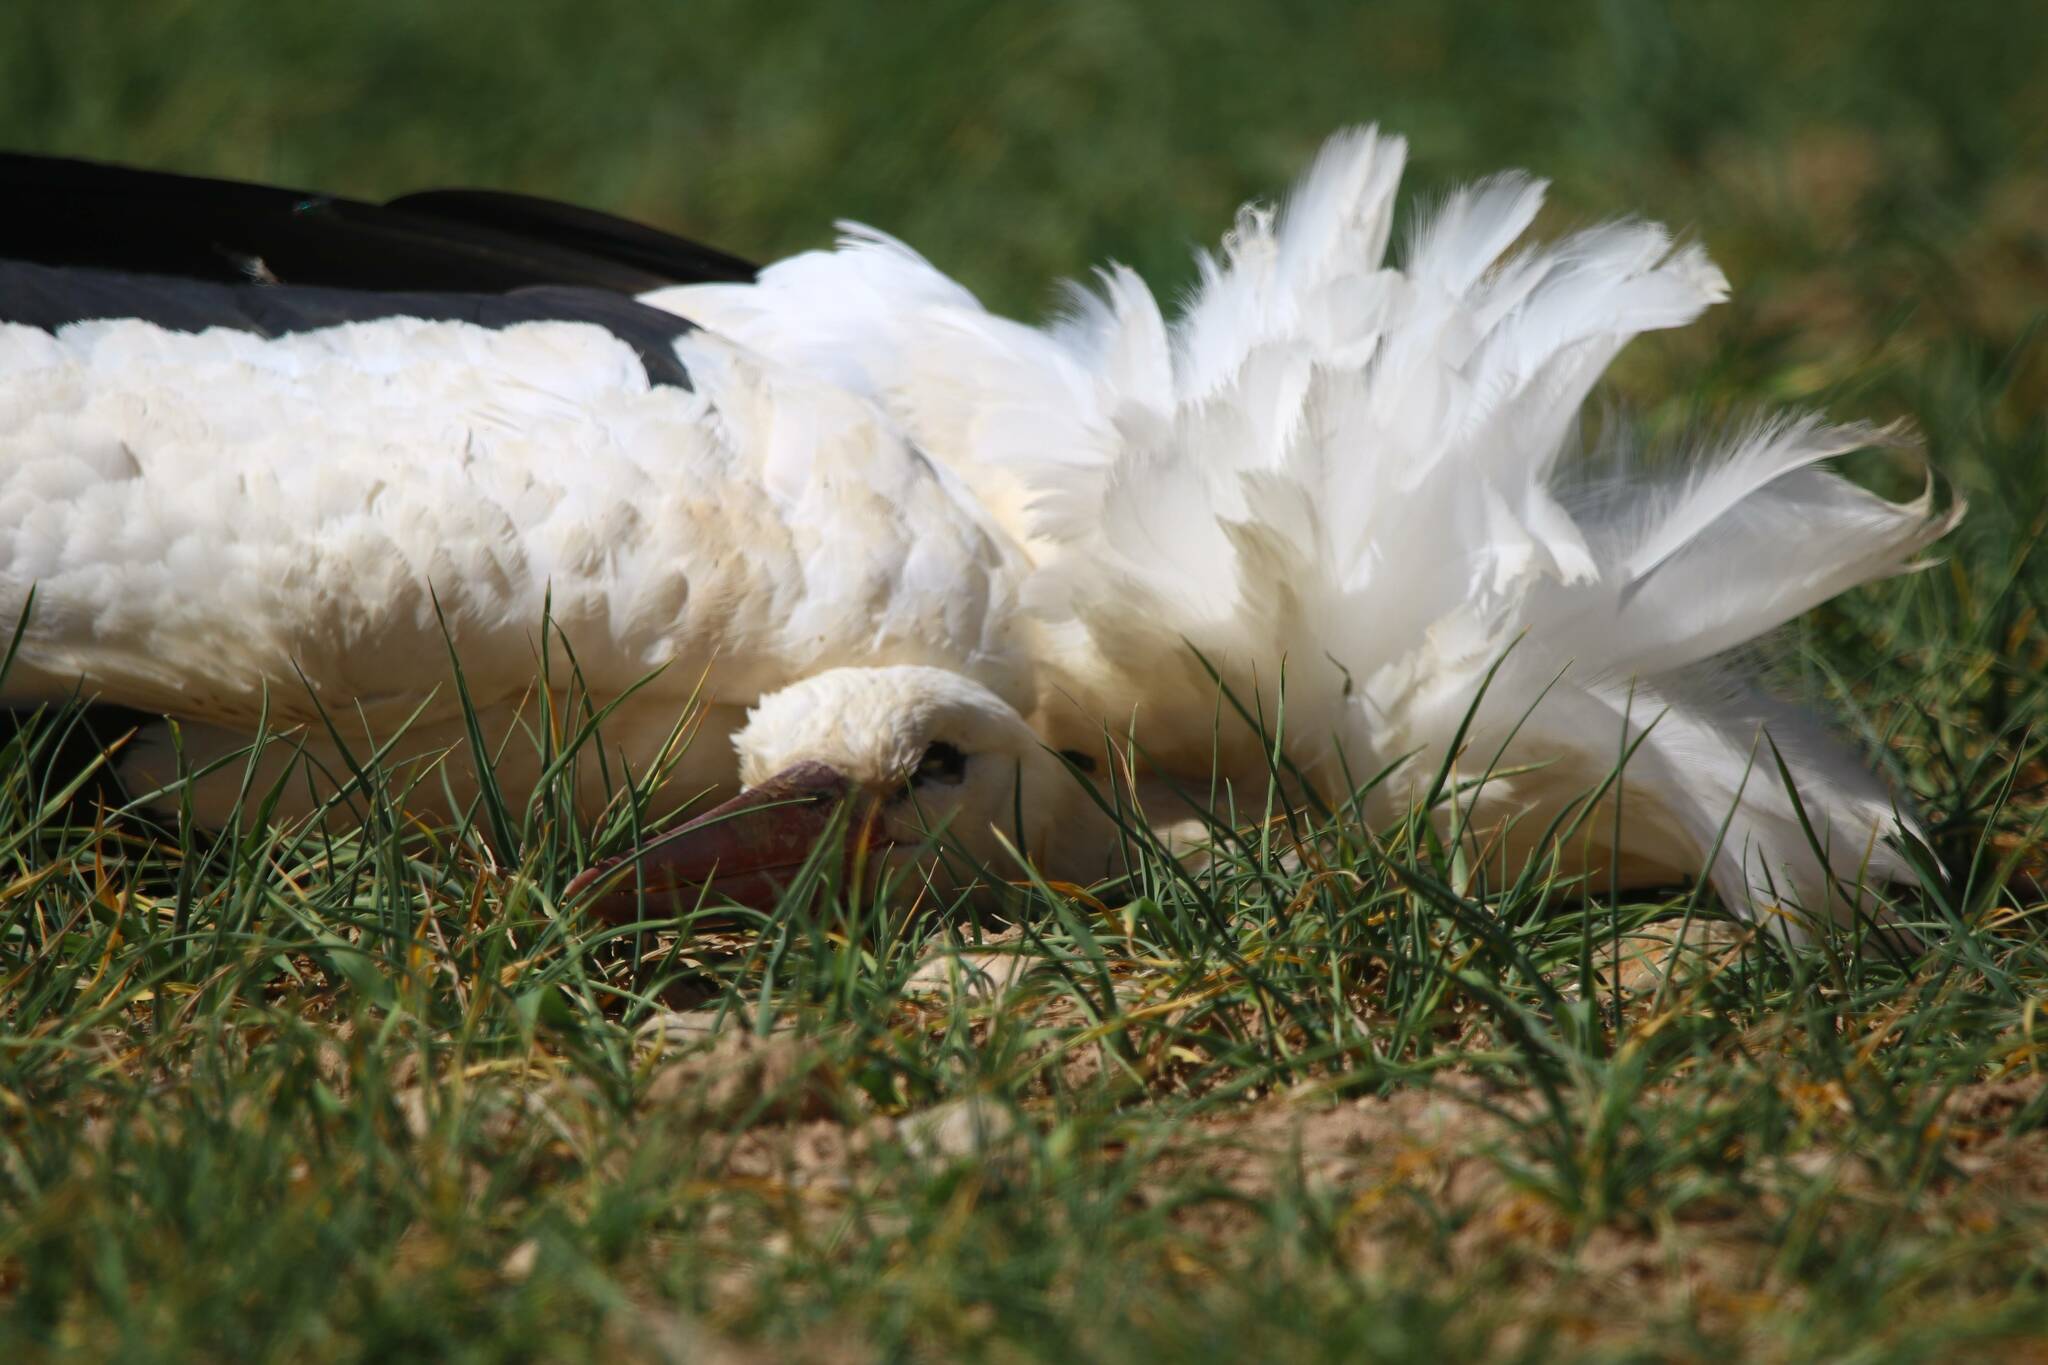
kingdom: Animalia
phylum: Chordata
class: Aves
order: Ciconiiformes
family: Ciconiidae
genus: Ciconia
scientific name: Ciconia ciconia
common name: White stork
